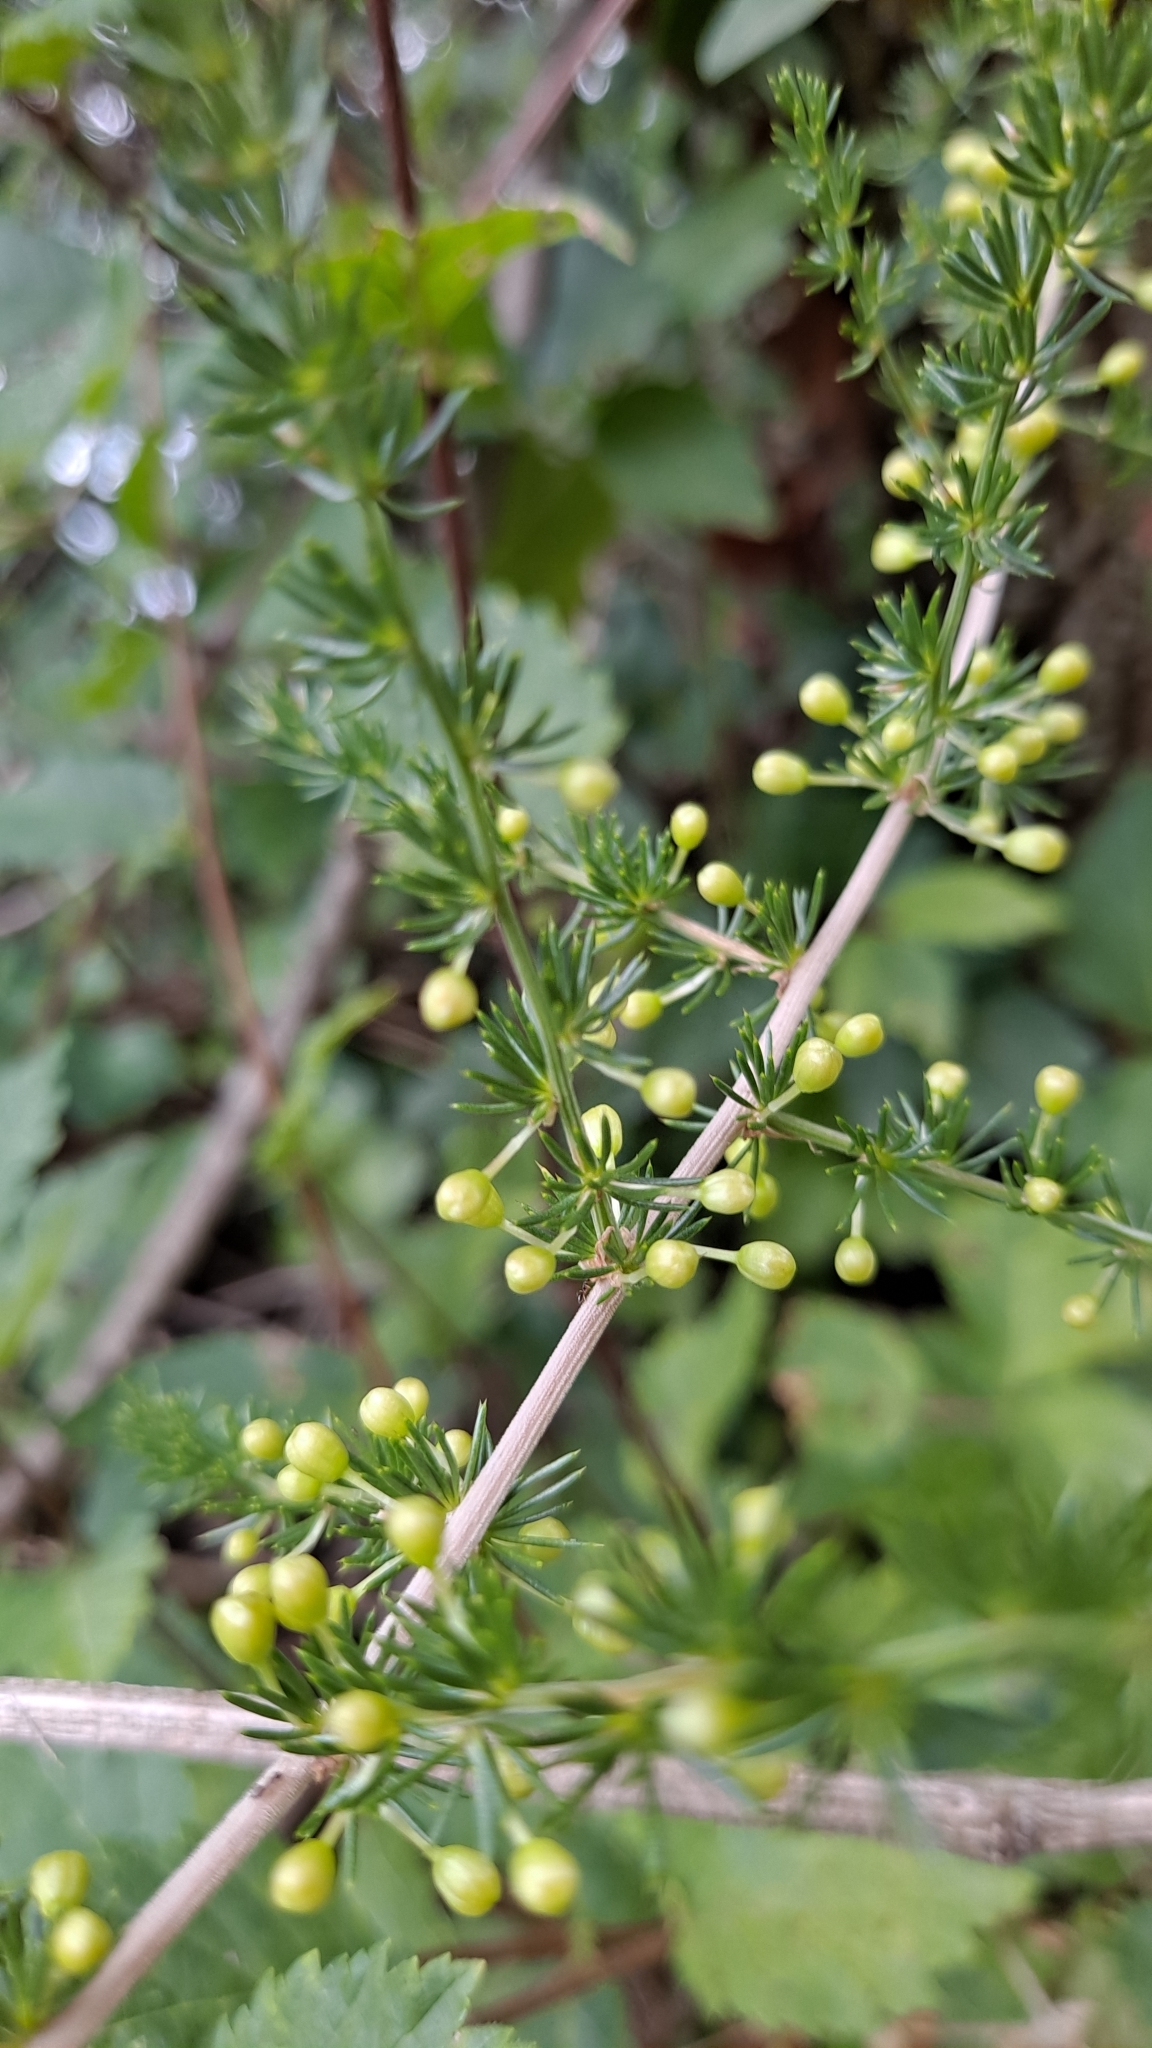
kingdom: Plantae
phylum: Tracheophyta
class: Liliopsida
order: Asparagales
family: Asparagaceae
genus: Asparagus
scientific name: Asparagus acutifolius
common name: Wild asparagus
